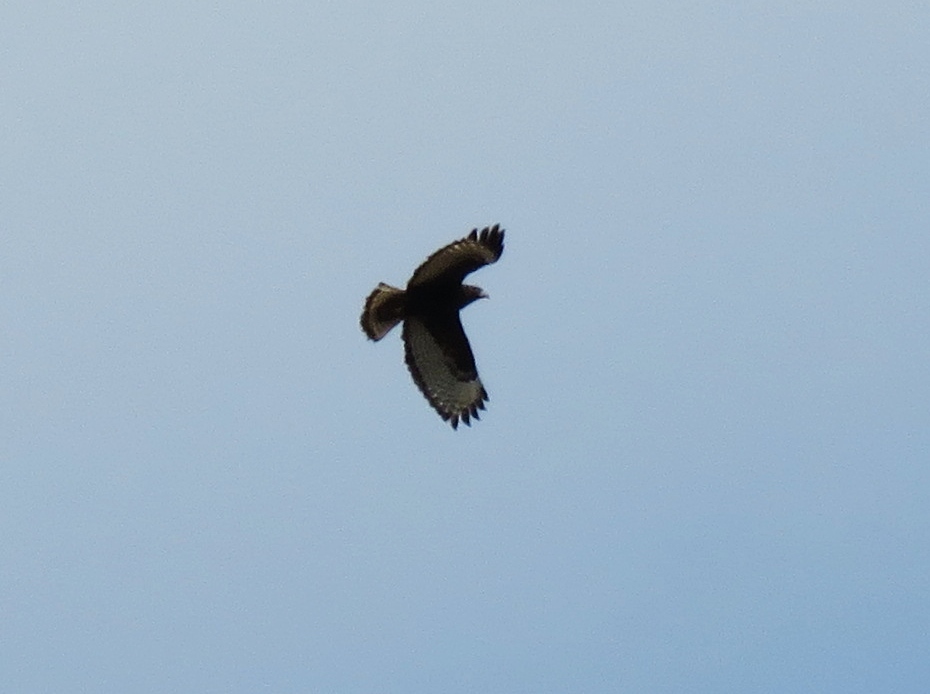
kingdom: Animalia
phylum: Chordata
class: Aves
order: Accipitriformes
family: Accipitridae
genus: Buteo
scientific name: Buteo jamaicensis
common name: Red-tailed hawk
